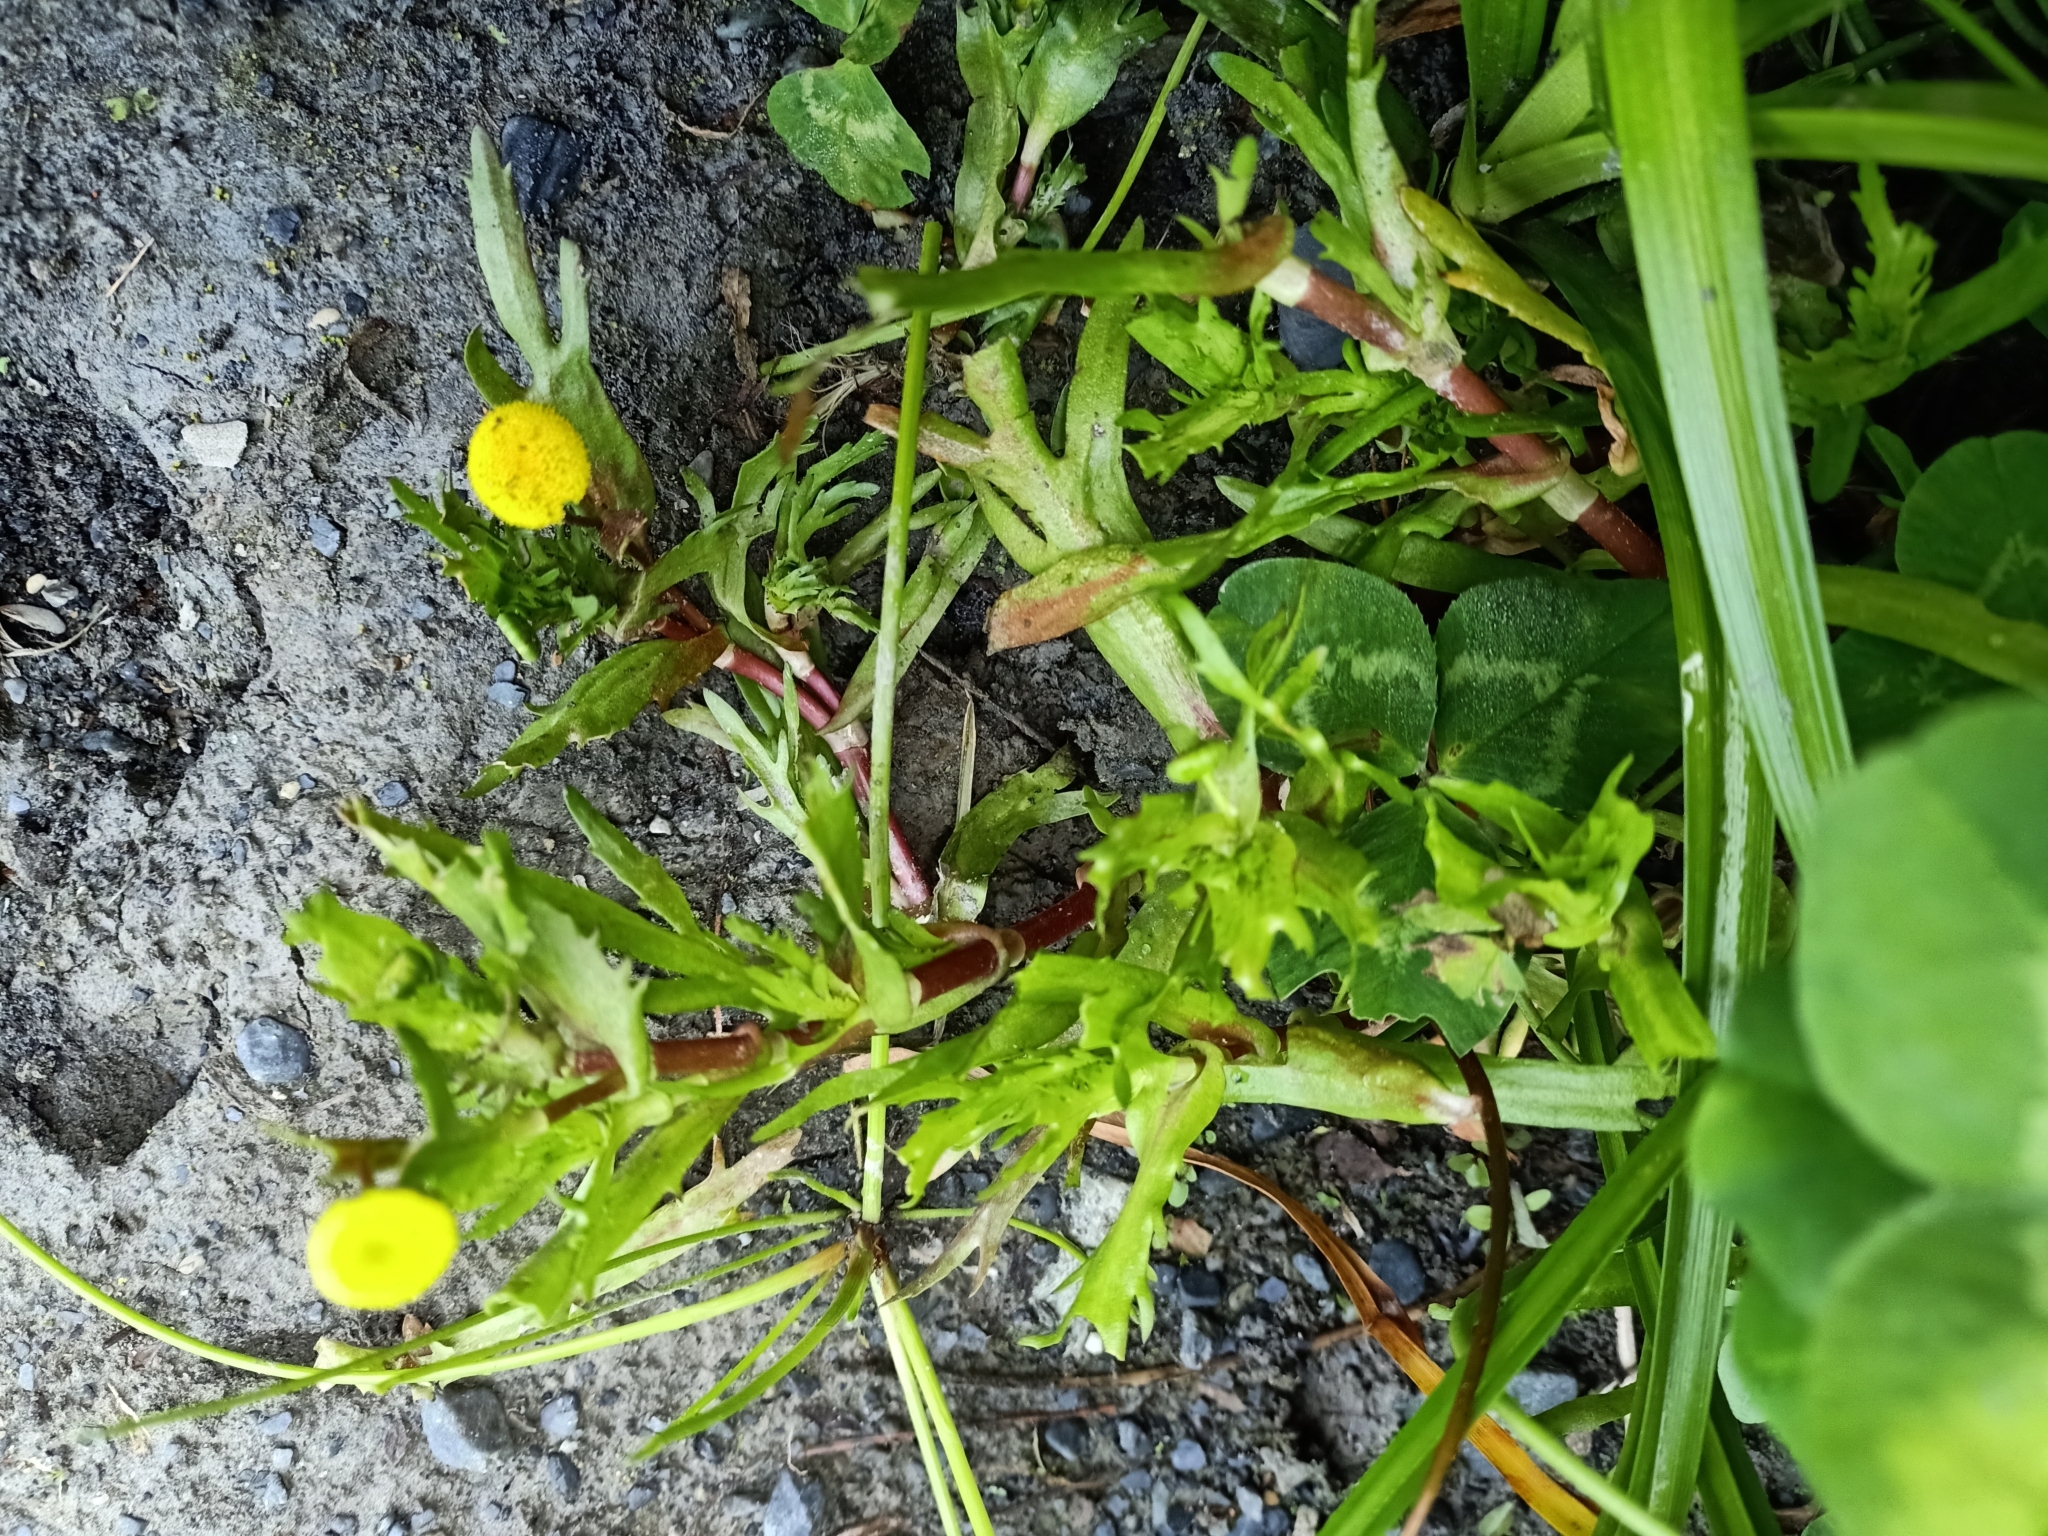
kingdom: Plantae
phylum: Tracheophyta
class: Magnoliopsida
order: Caryophyllales
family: Polygonaceae
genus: Muehlenbeckia
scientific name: Muehlenbeckia australis
